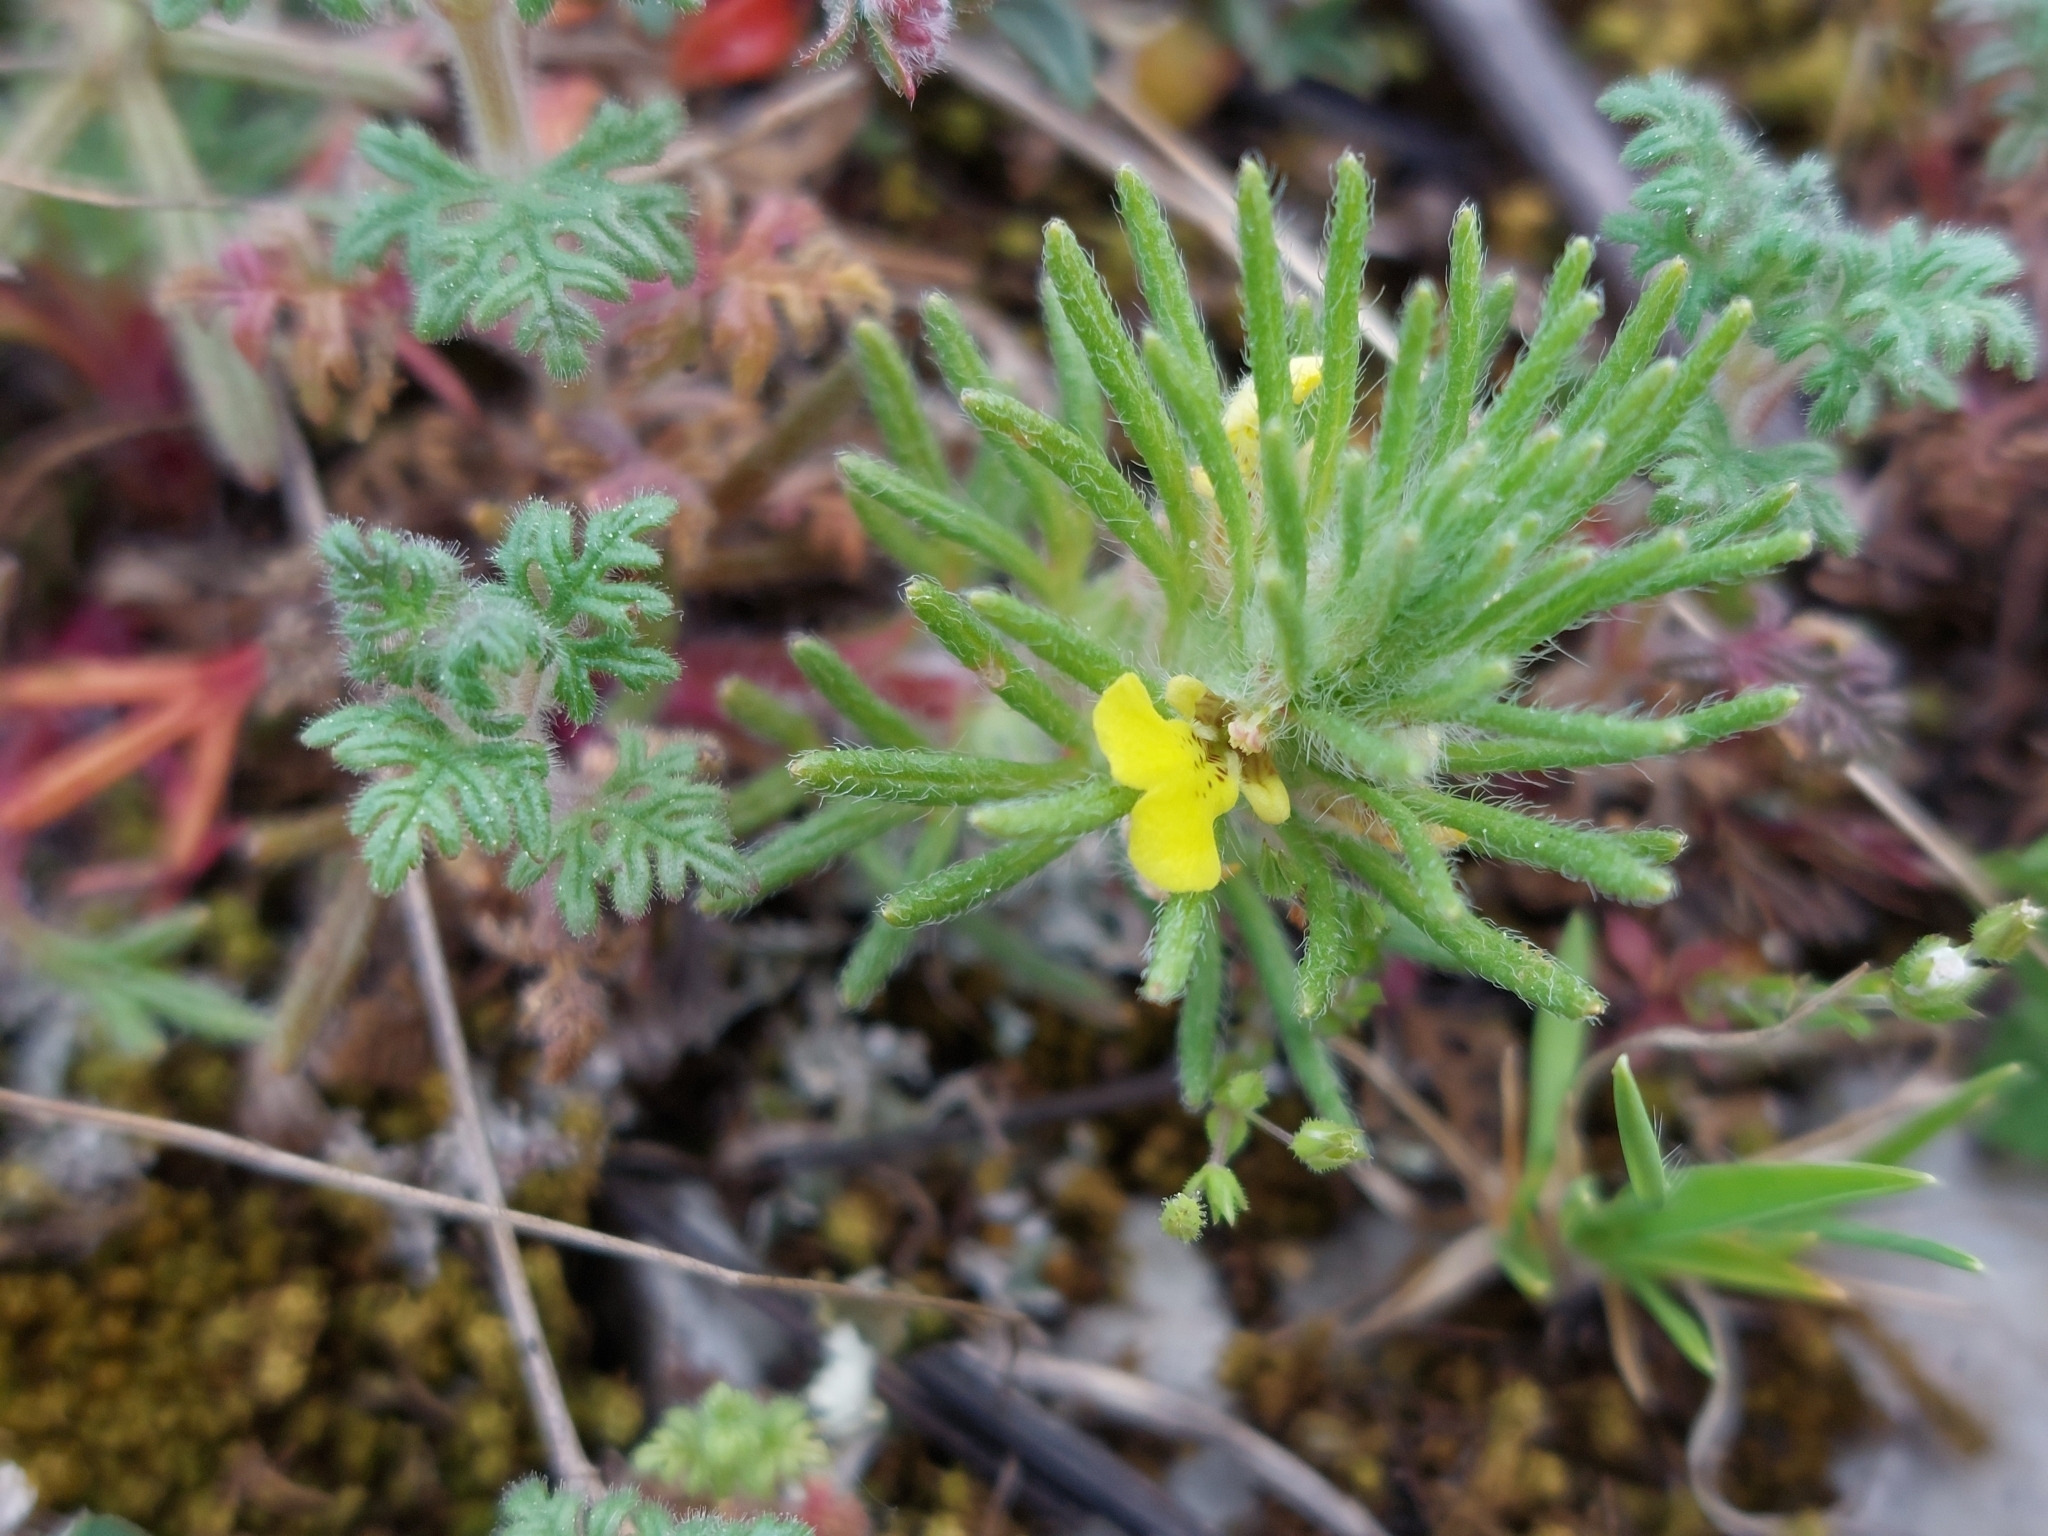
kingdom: Plantae
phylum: Tracheophyta
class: Magnoliopsida
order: Lamiales
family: Lamiaceae
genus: Ajuga
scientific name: Ajuga chamaepitys
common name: Ground-pine
